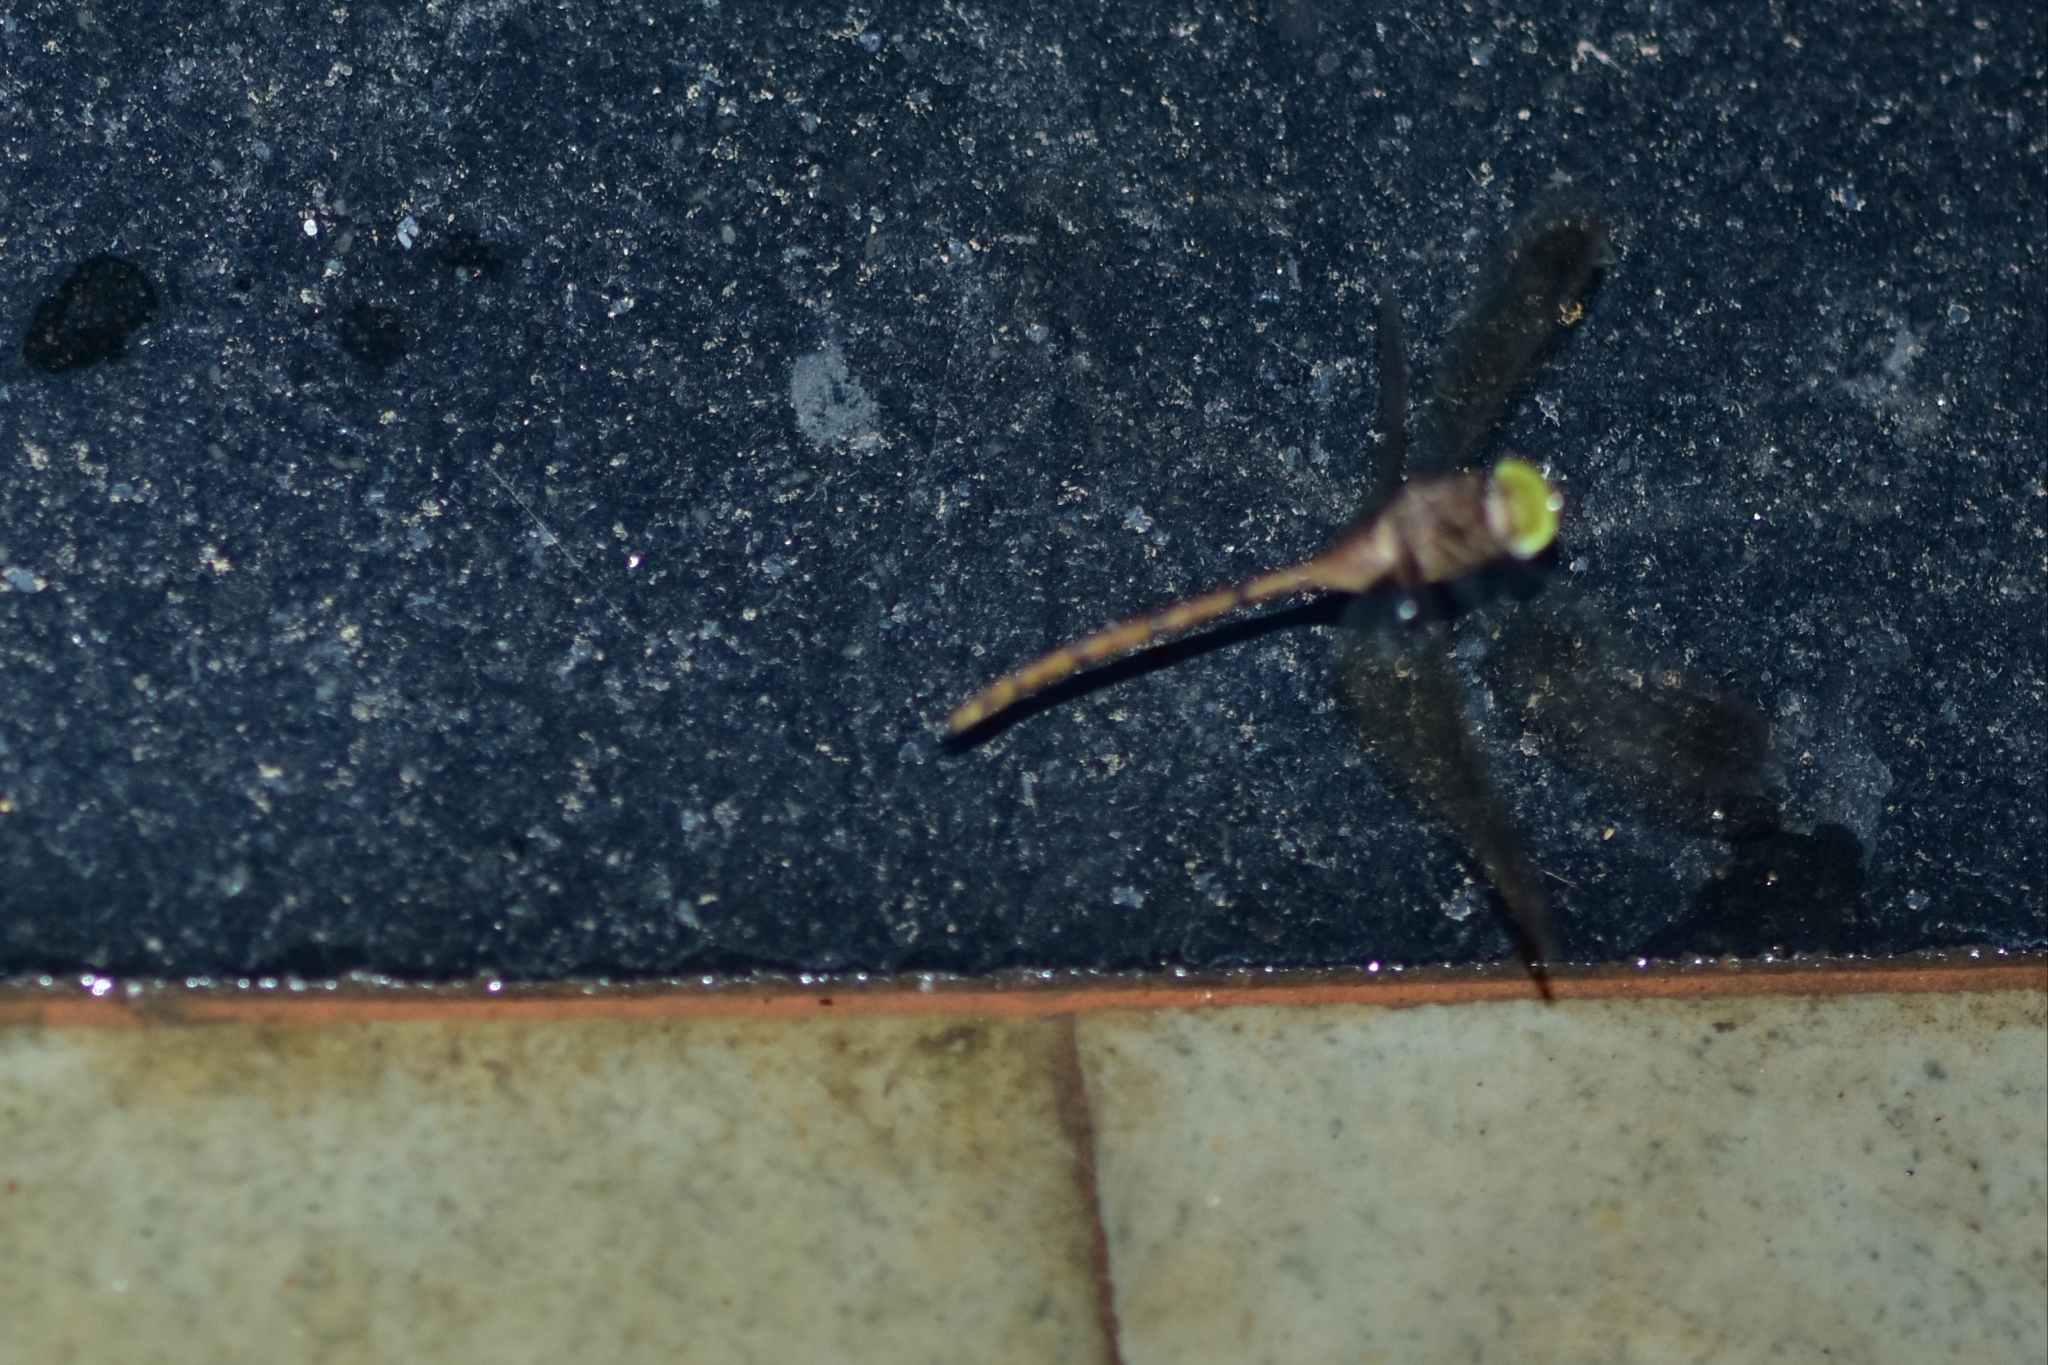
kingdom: Animalia
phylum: Arthropoda
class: Insecta
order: Odonata
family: Libellulidae
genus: Zyxomma
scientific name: Zyxomma petiolatum
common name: Dingy dusk-darter
